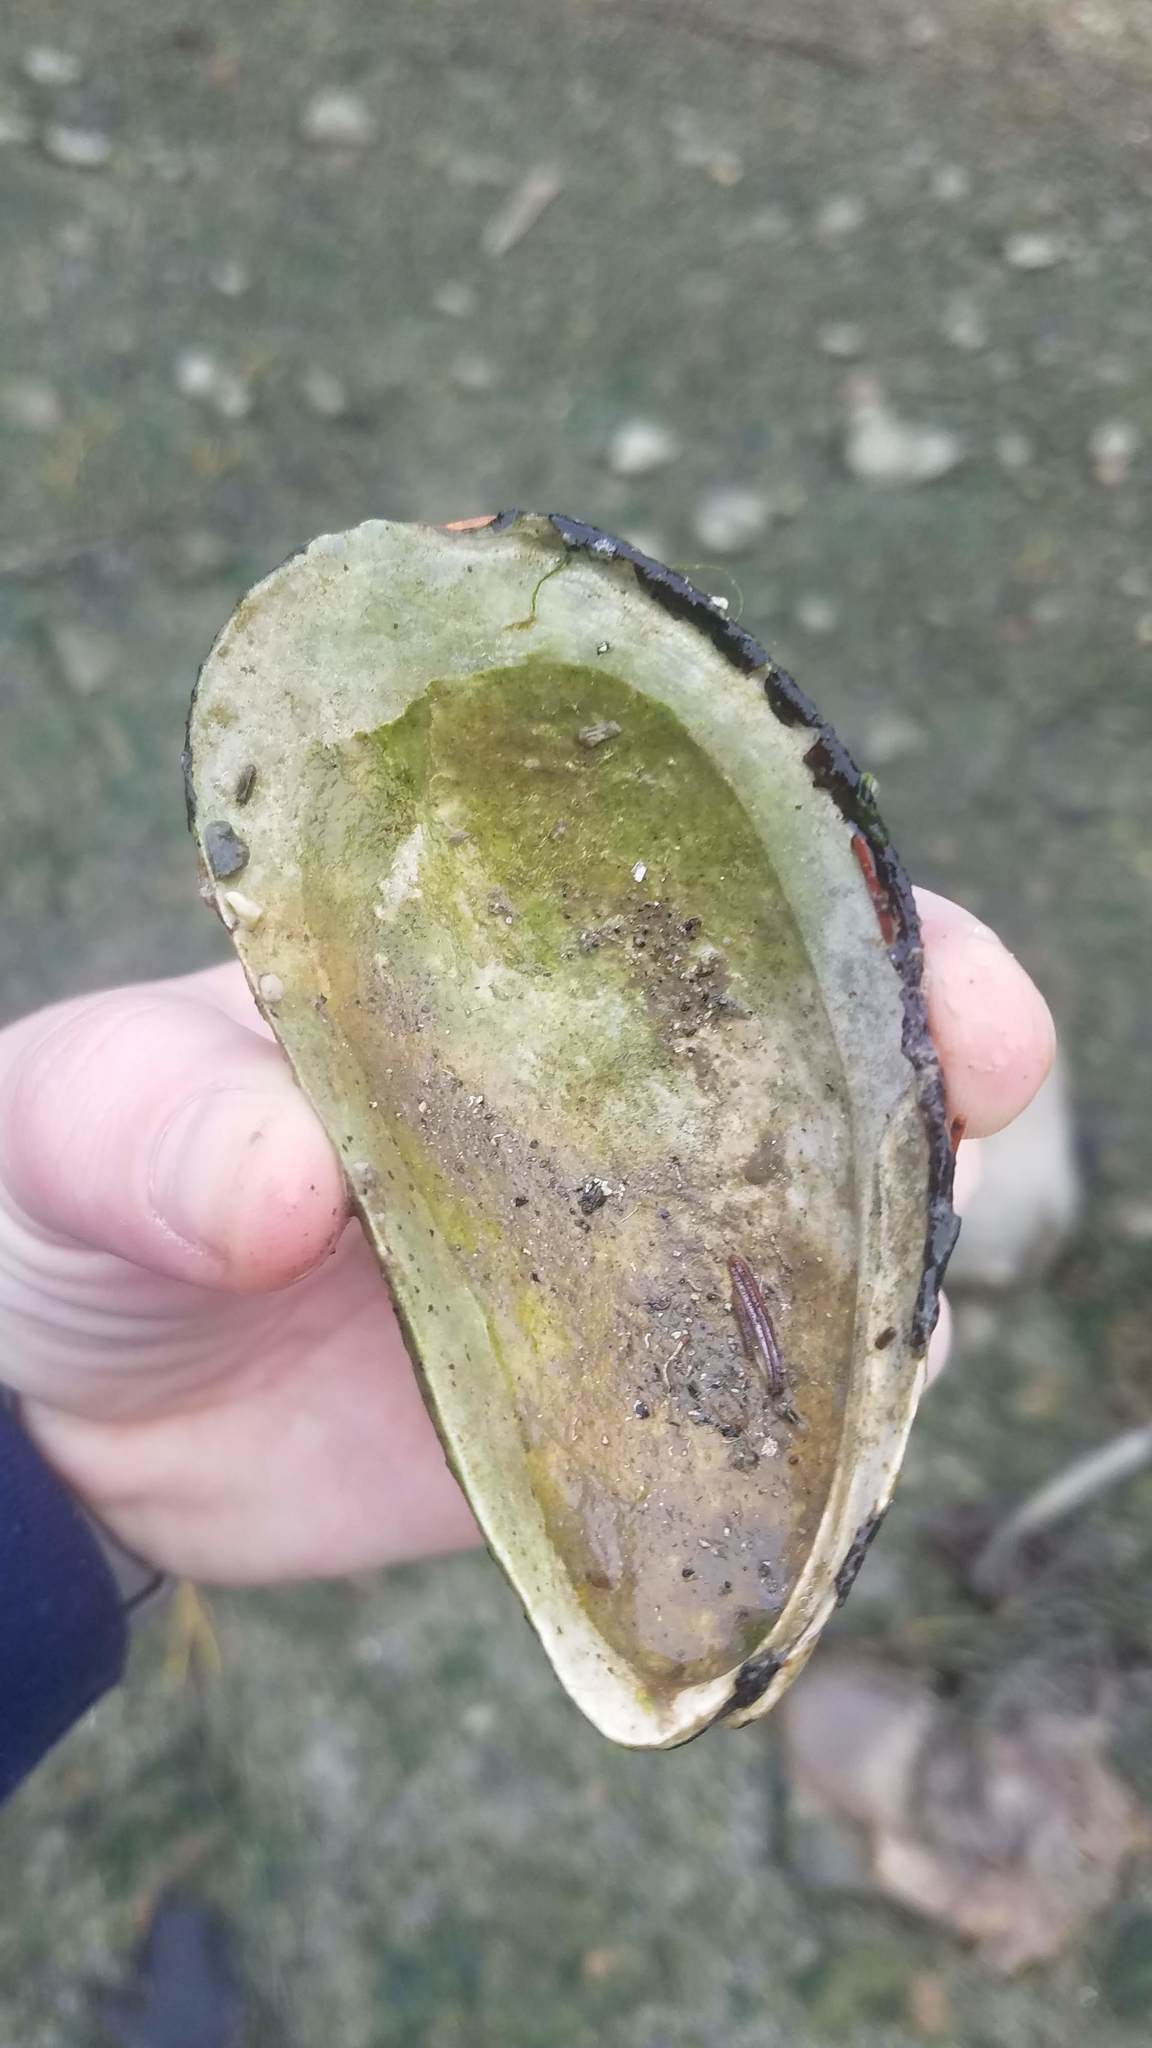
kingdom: Animalia
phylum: Mollusca
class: Bivalvia
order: Mytilida
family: Mytilidae
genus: Modiolus
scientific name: Modiolus modiolus
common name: Horse-mussel
